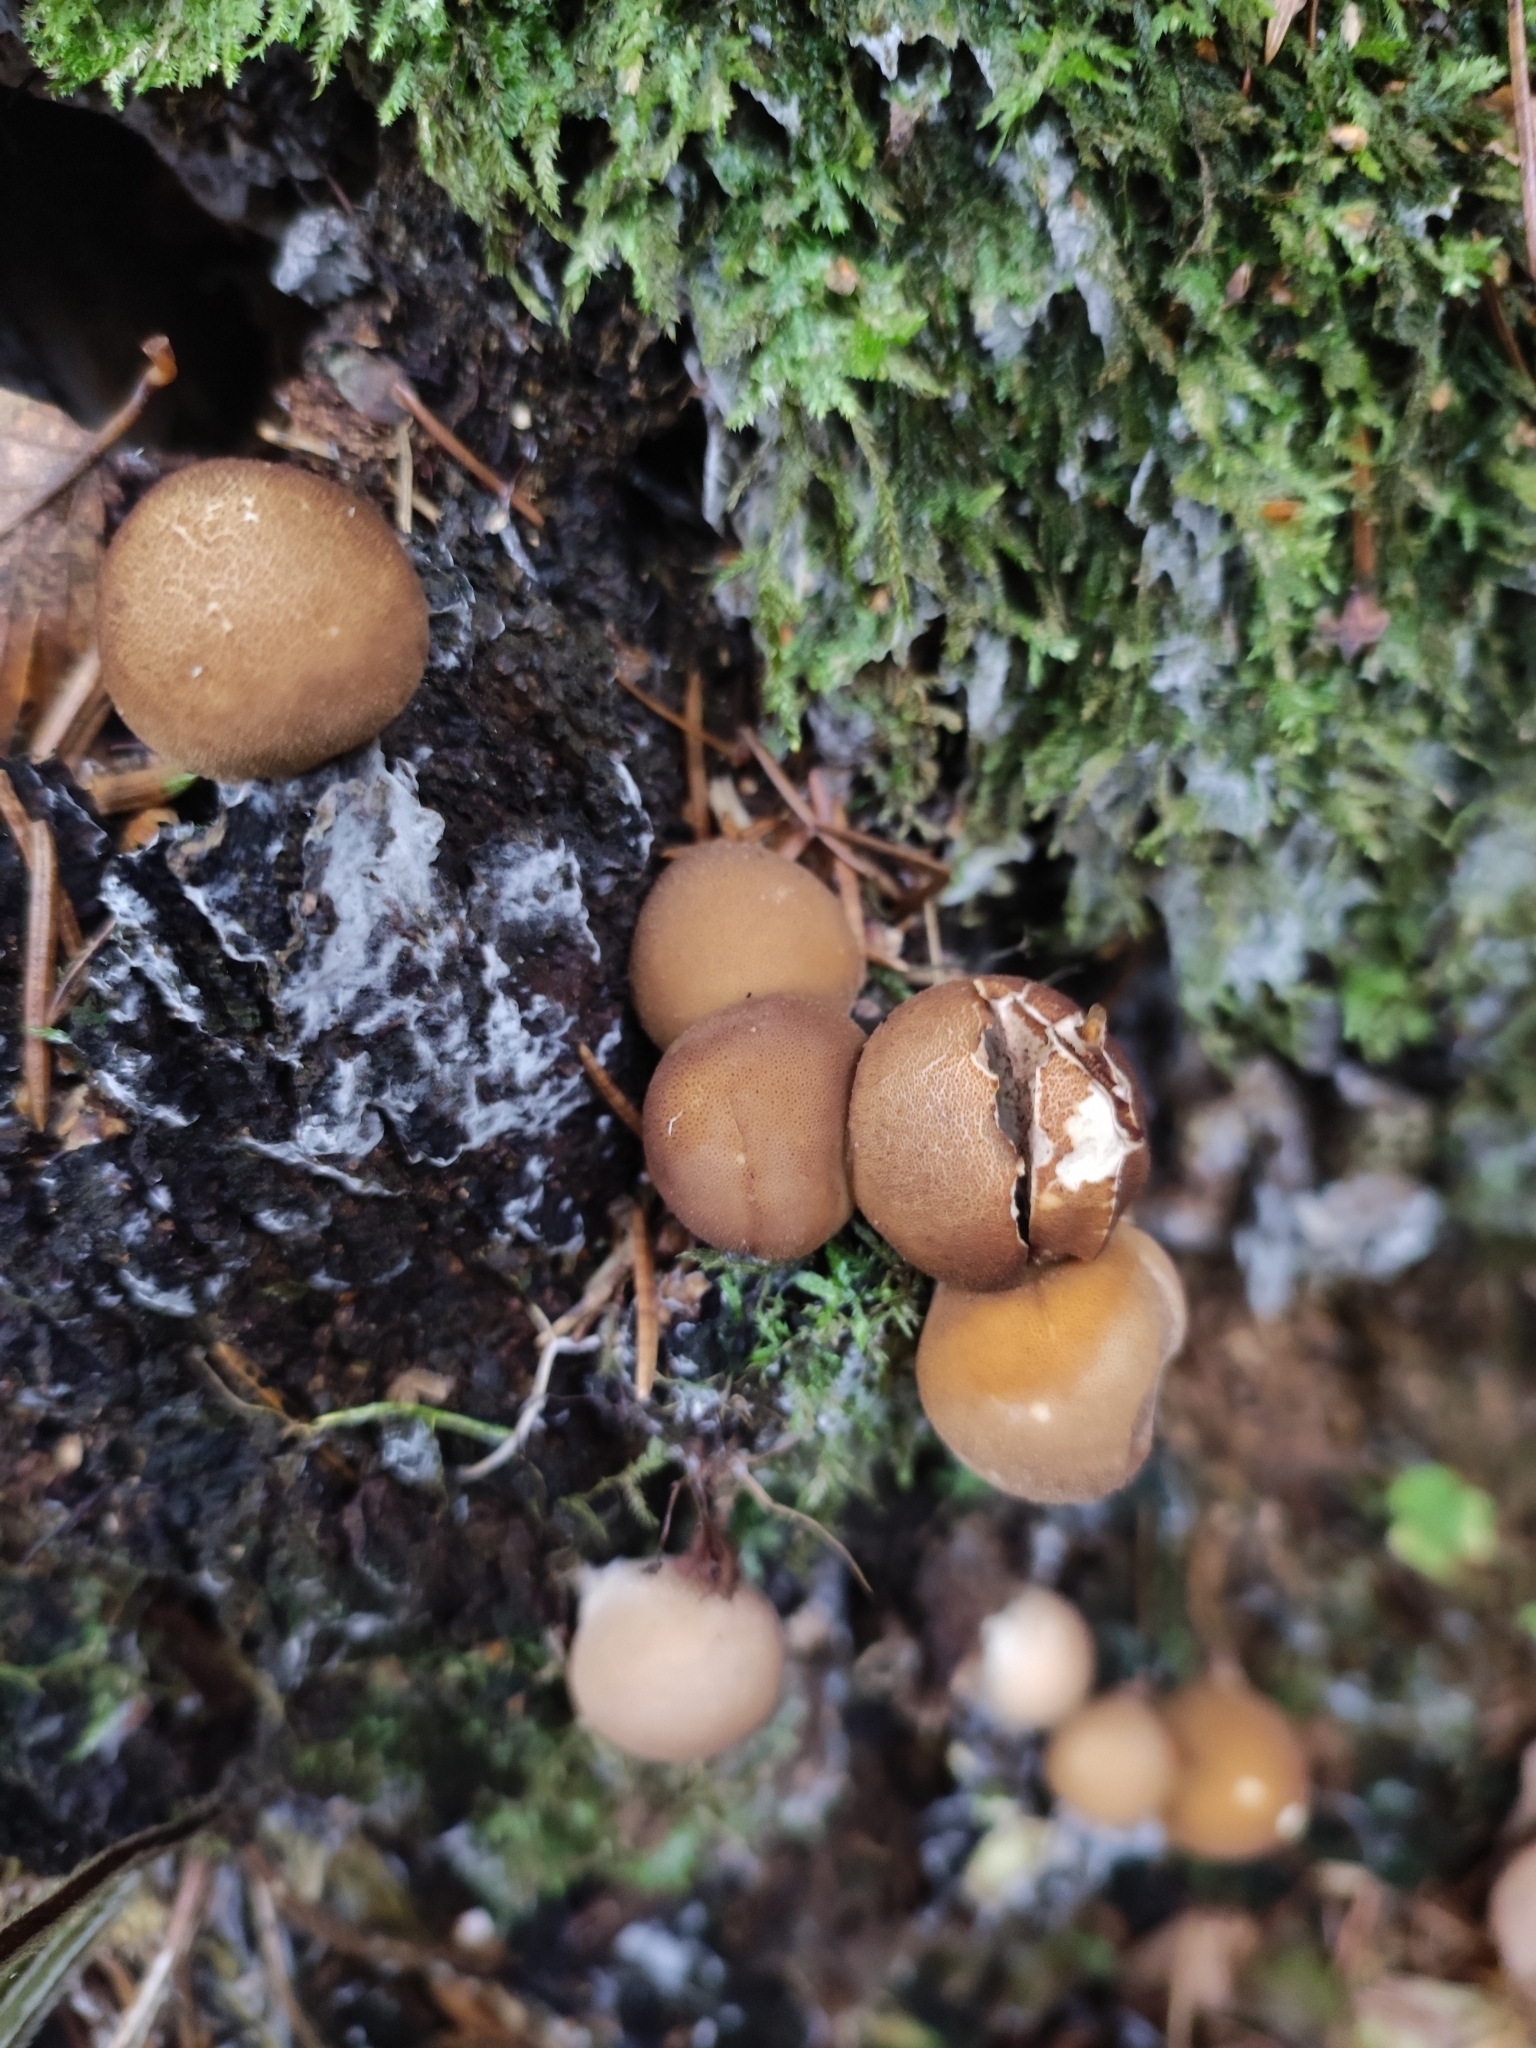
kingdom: Fungi
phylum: Basidiomycota
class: Agaricomycetes
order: Agaricales
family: Lycoperdaceae
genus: Apioperdon
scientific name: Apioperdon pyriforme
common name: Pear-shaped puffball
